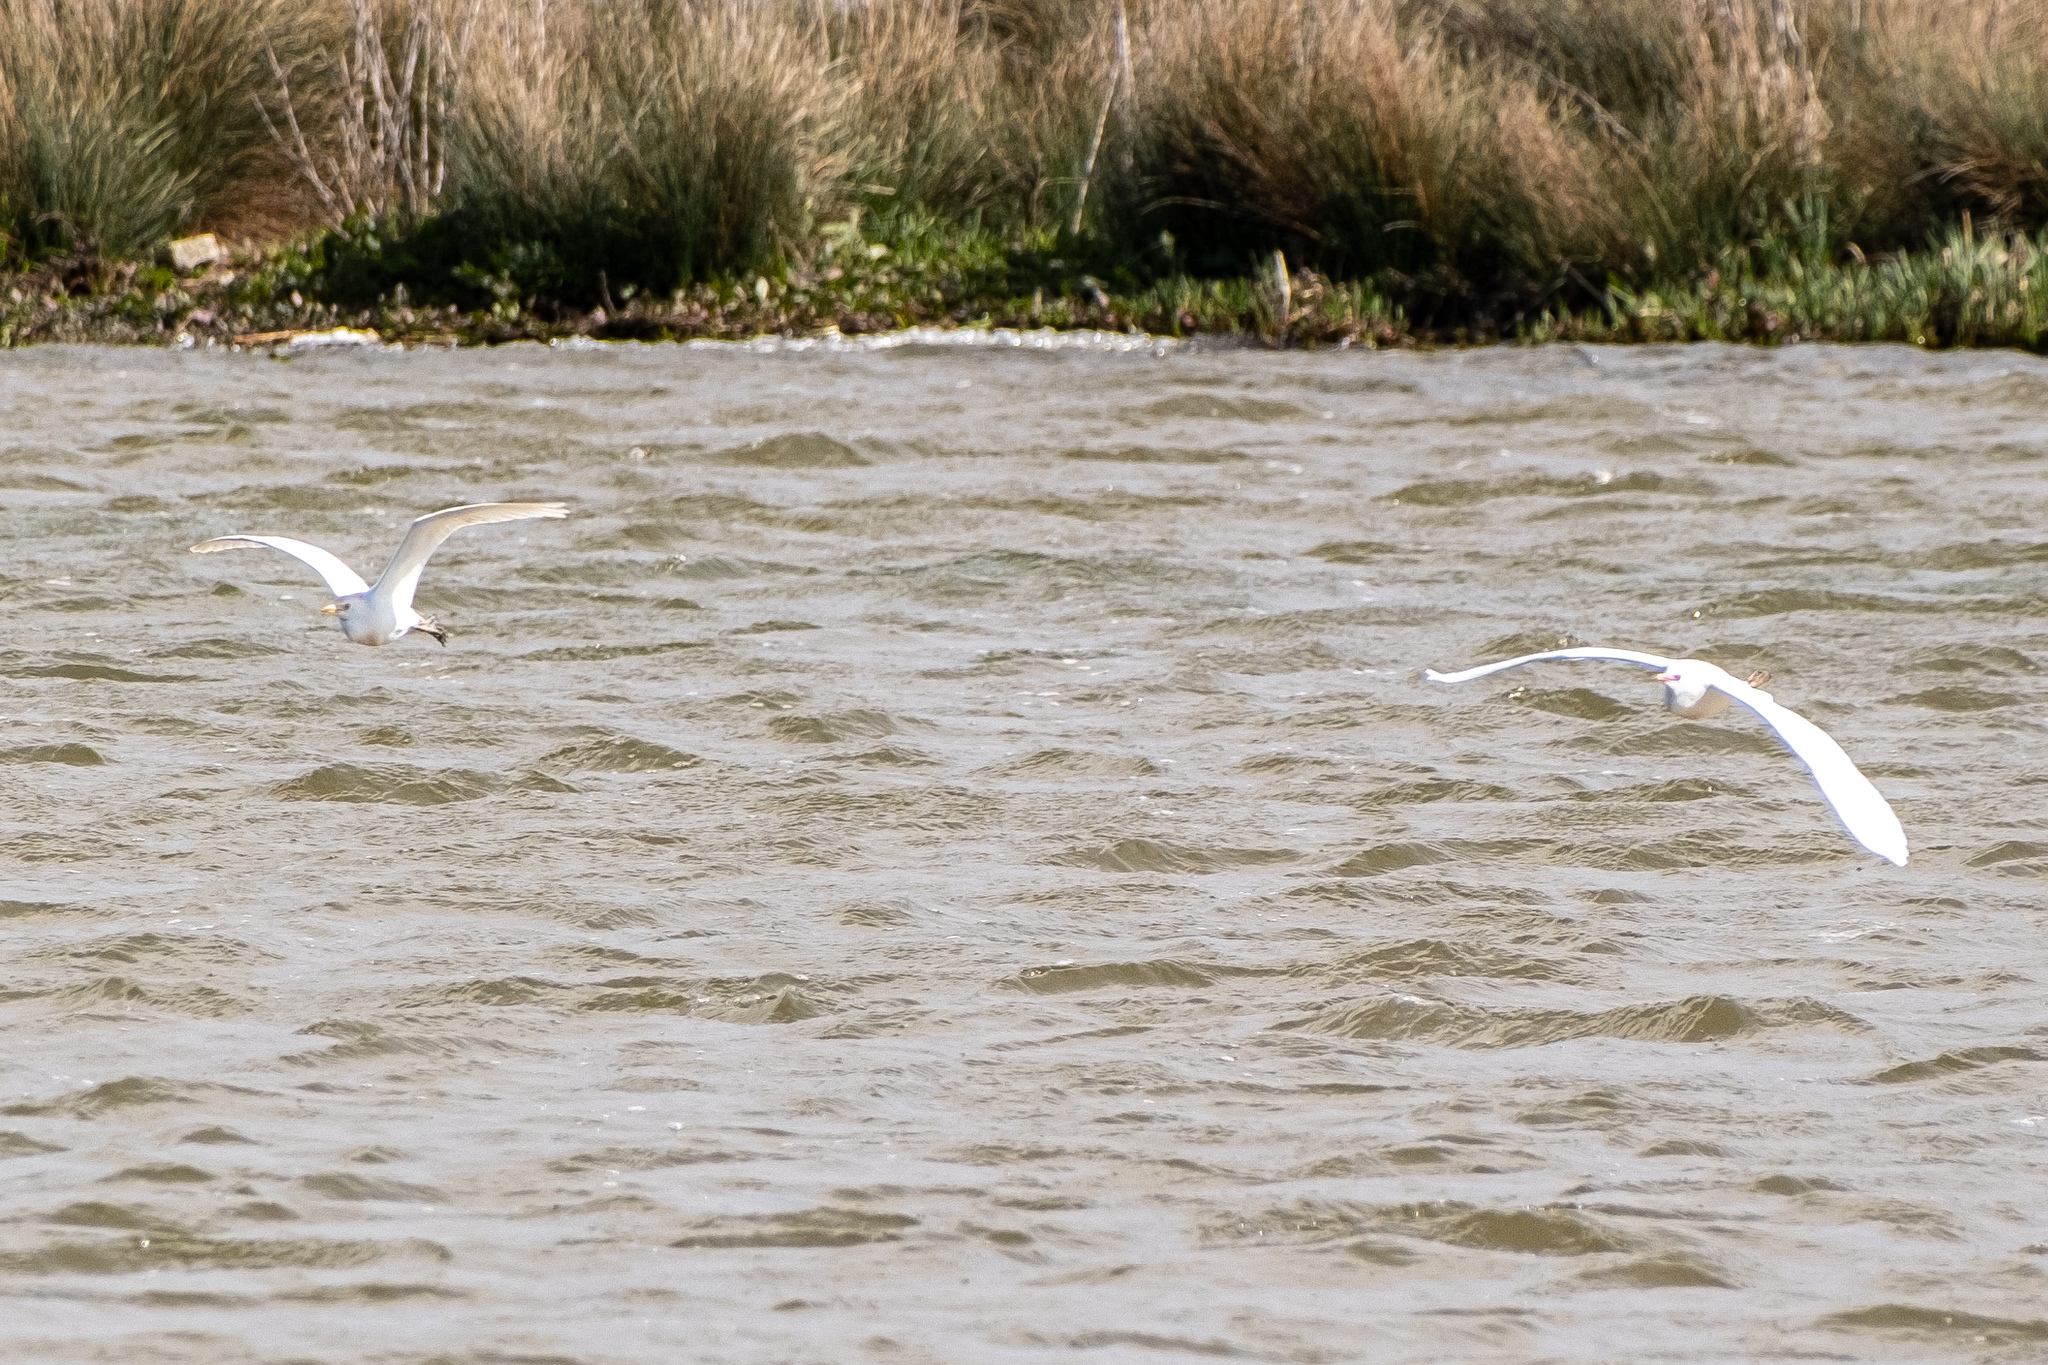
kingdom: Animalia
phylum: Chordata
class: Aves
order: Pelecaniformes
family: Ardeidae
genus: Bubulcus
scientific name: Bubulcus ibis
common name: Cattle egret
